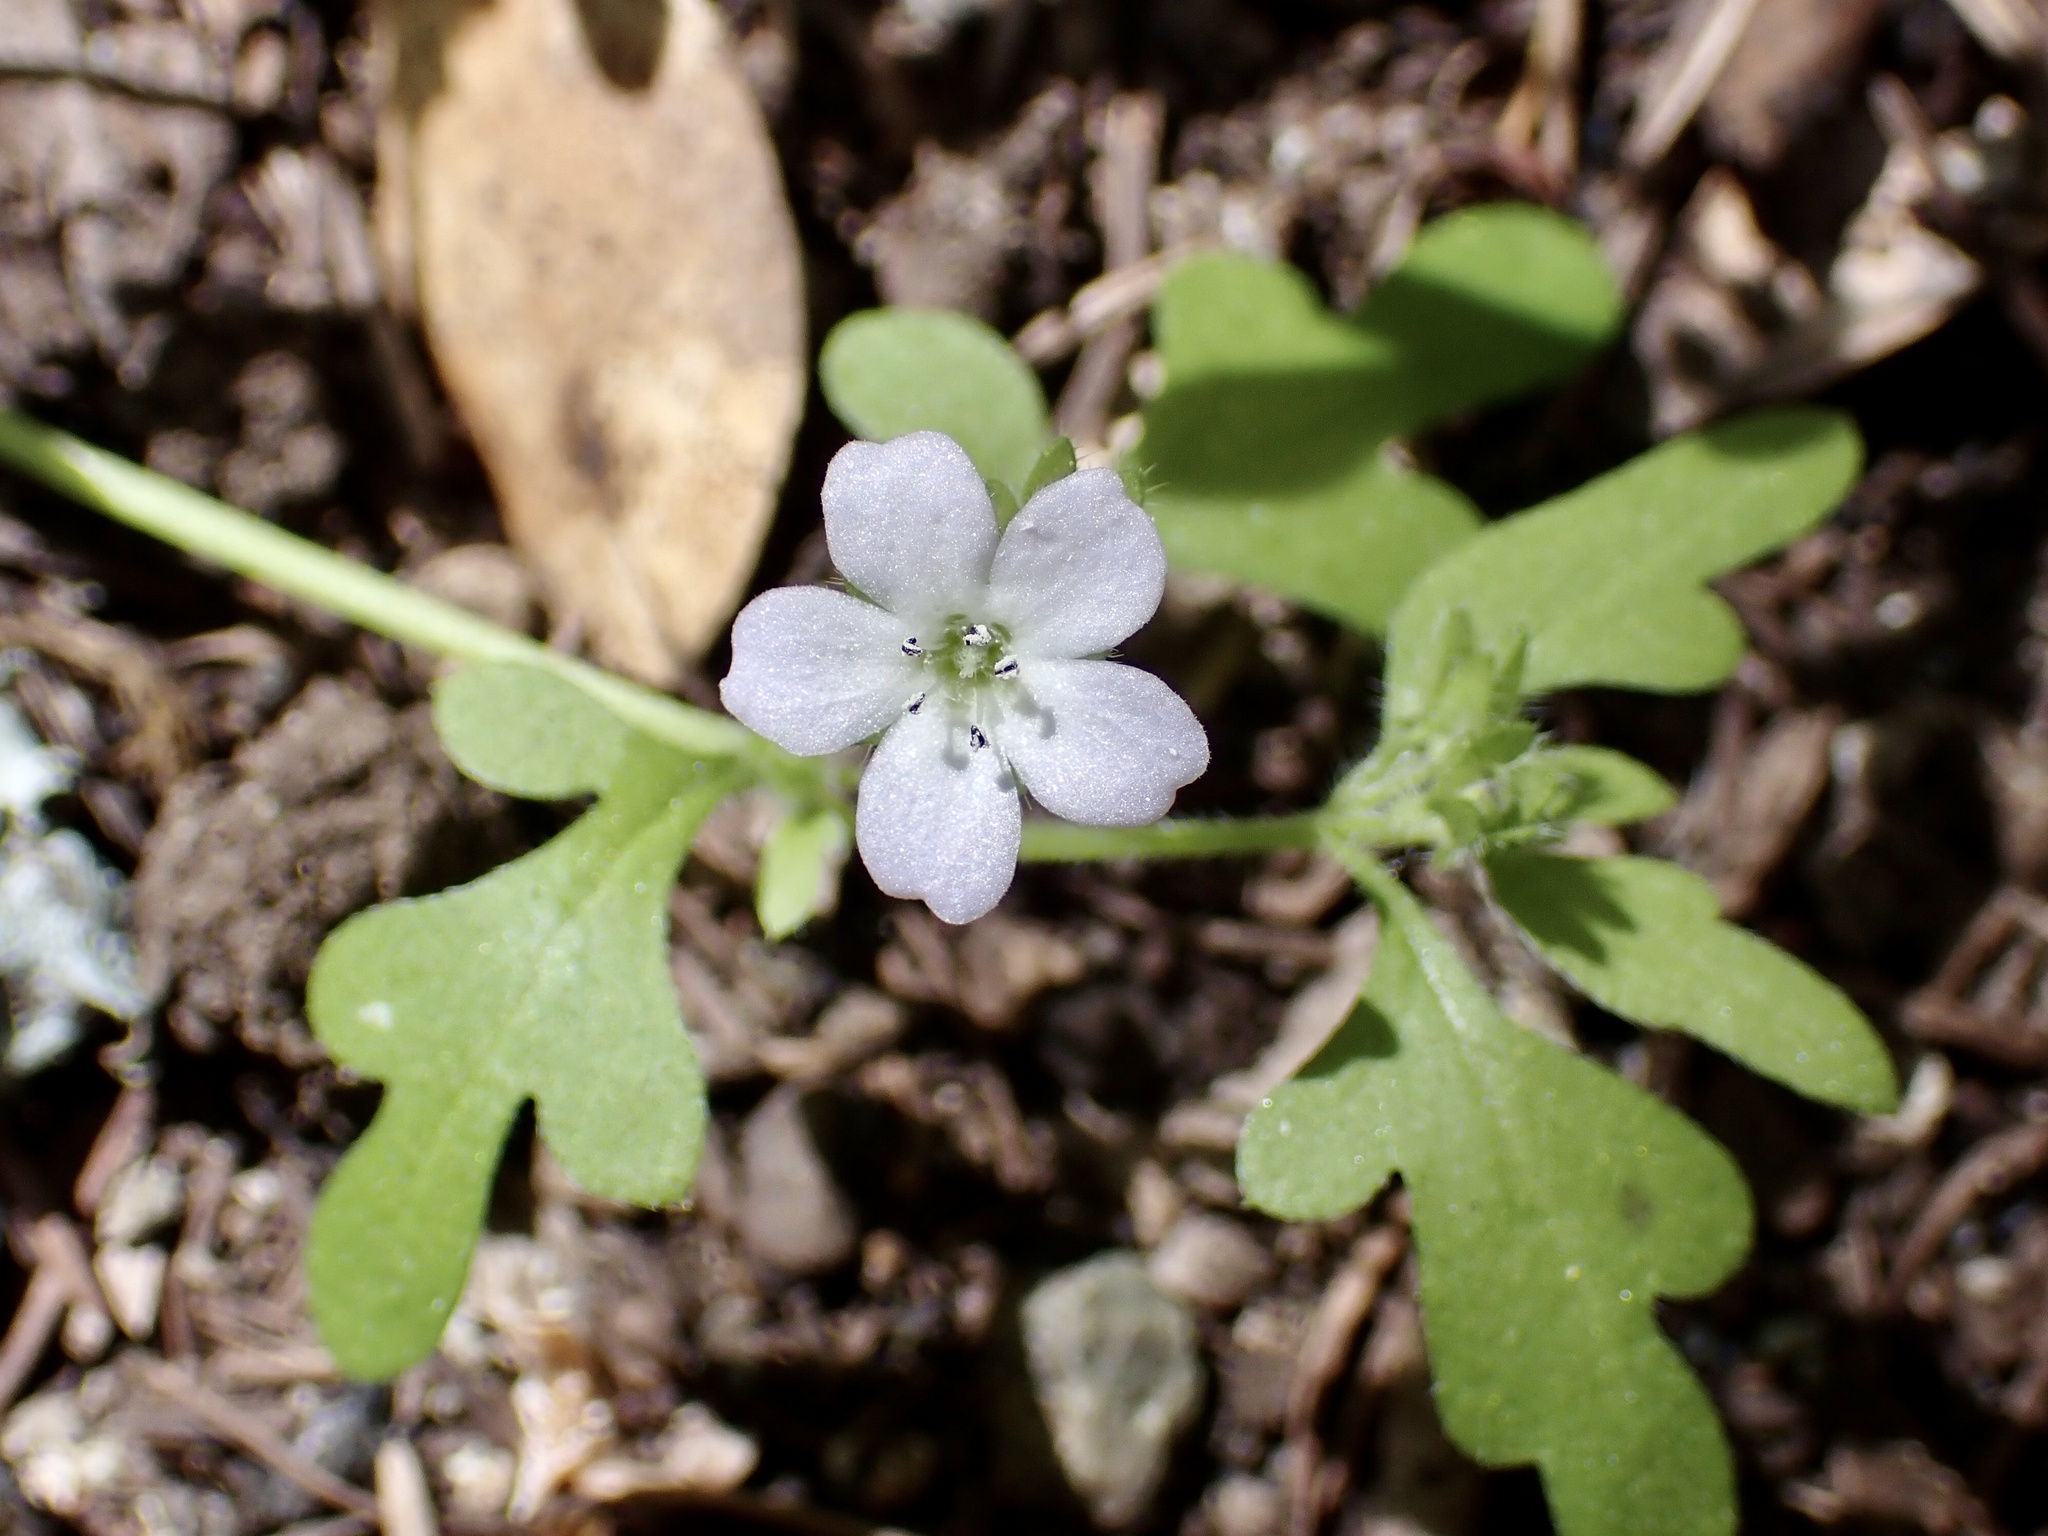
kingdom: Plantae
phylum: Tracheophyta
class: Magnoliopsida
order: Boraginales
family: Hydrophyllaceae
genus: Nemophila
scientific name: Nemophila heterophylla
